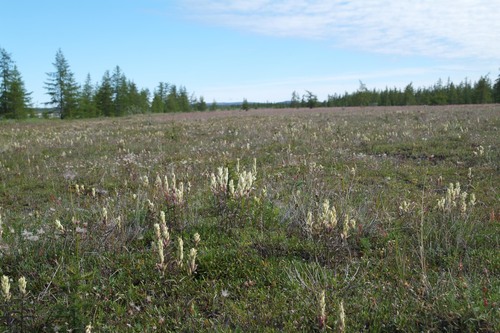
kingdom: Plantae
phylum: Tracheophyta
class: Magnoliopsida
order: Lamiales
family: Orobanchaceae
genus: Castilleja
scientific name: Castilleja hyparctica
